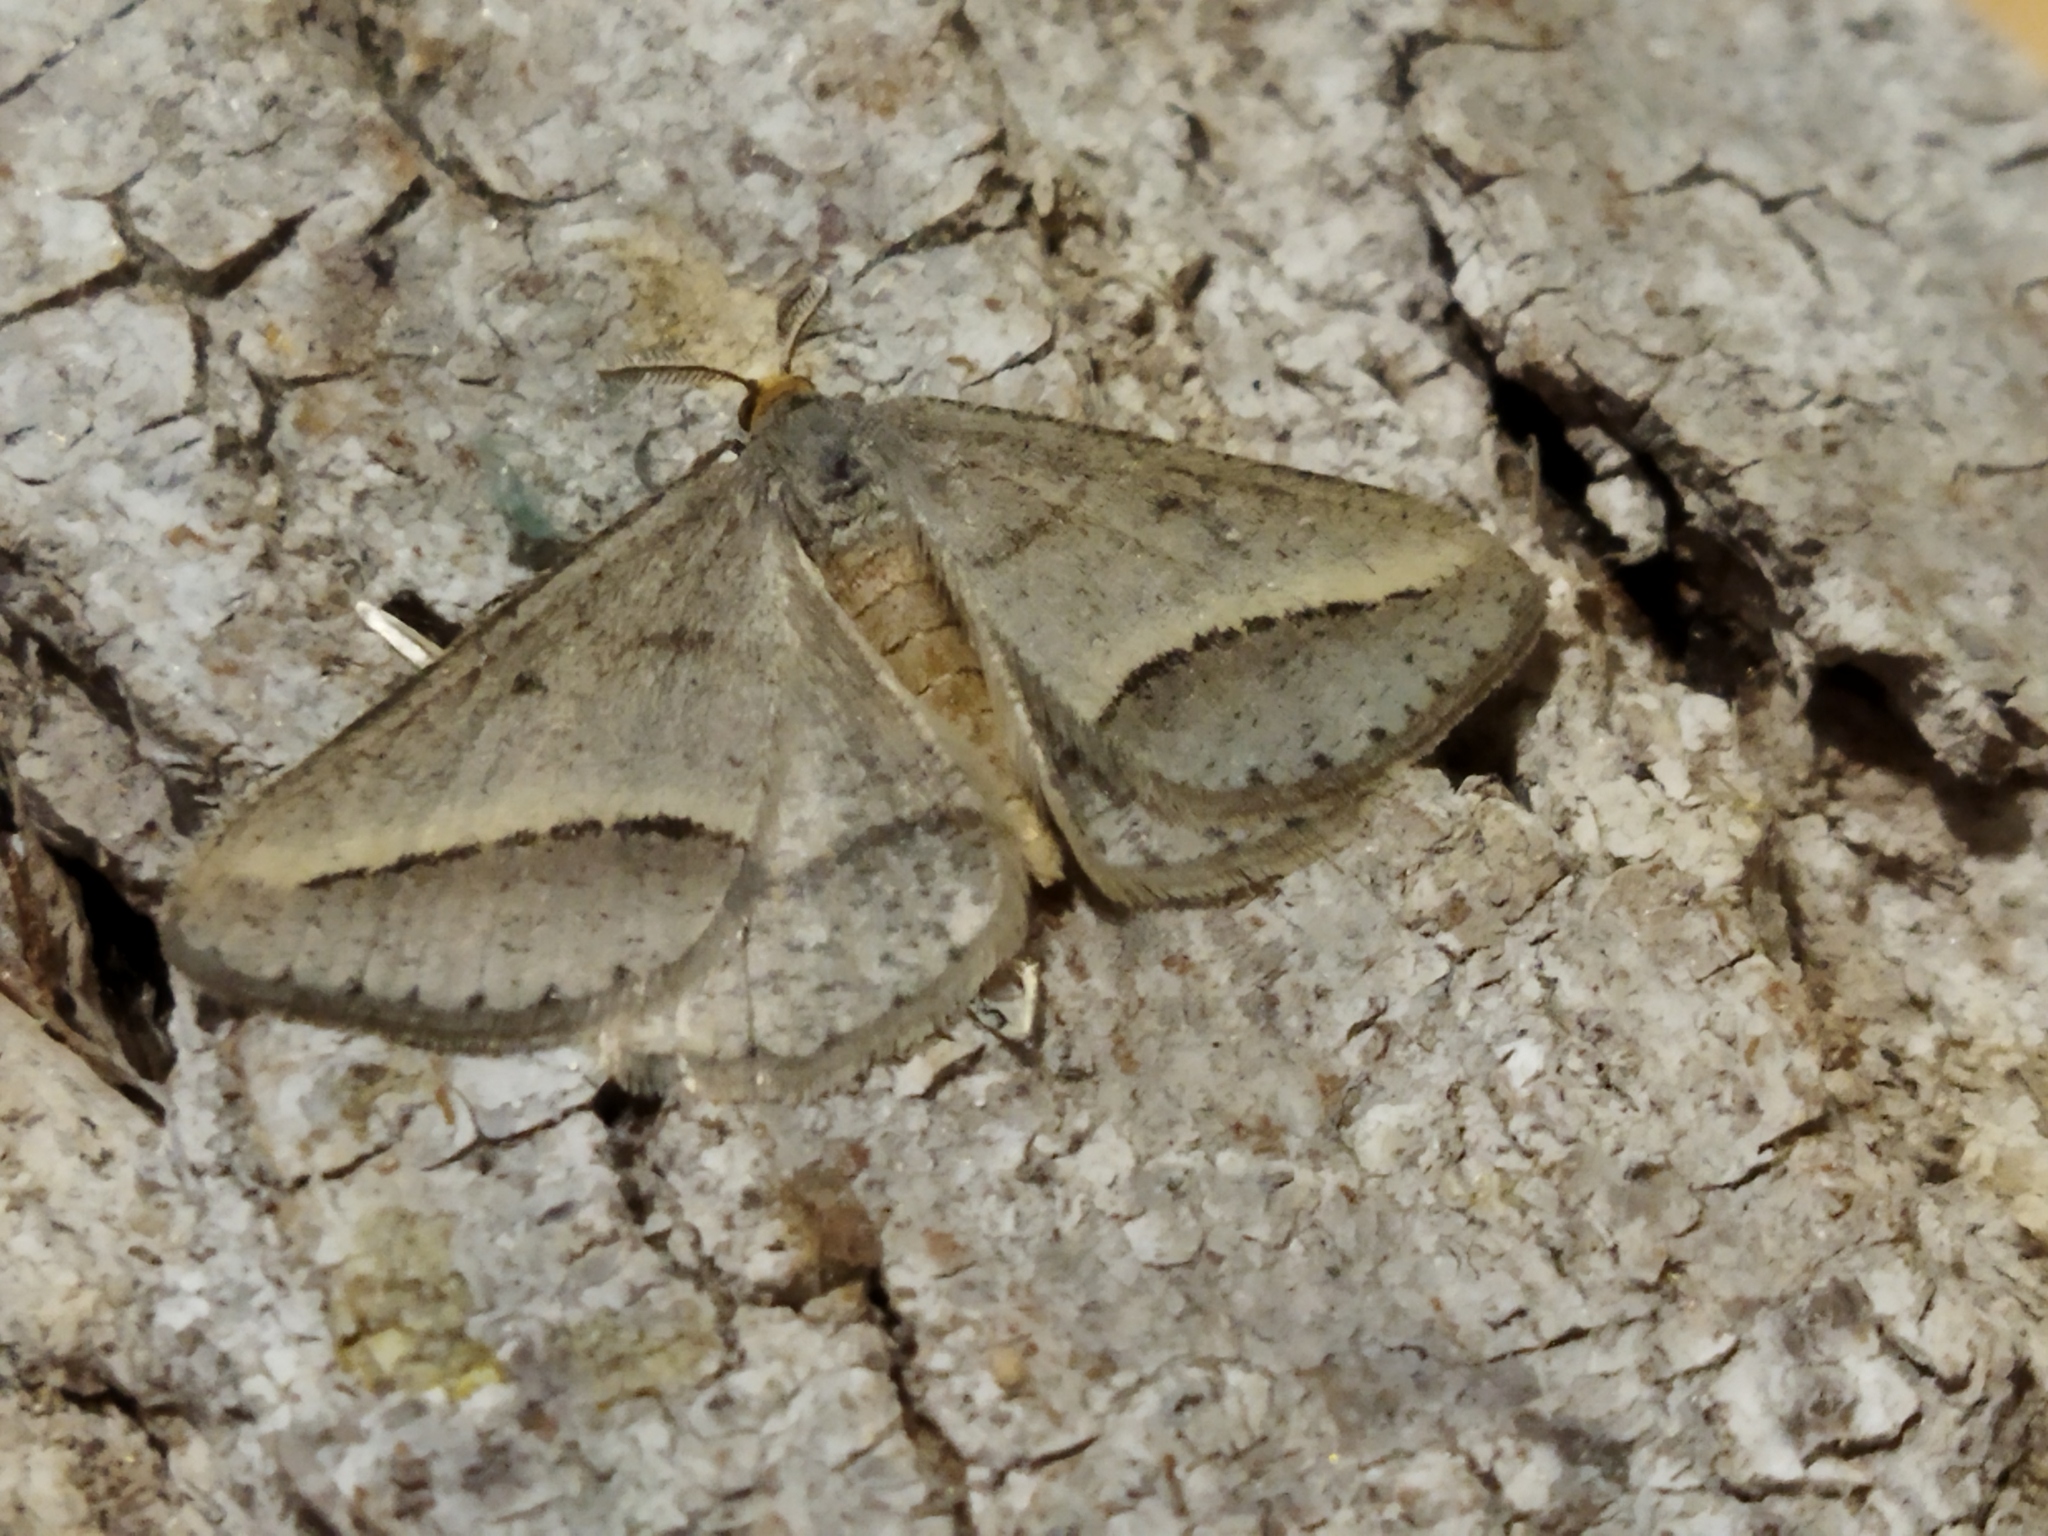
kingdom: Animalia
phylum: Arthropoda
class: Insecta
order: Lepidoptera
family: Geometridae
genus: Tephrina
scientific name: Tephrina arenacearia
